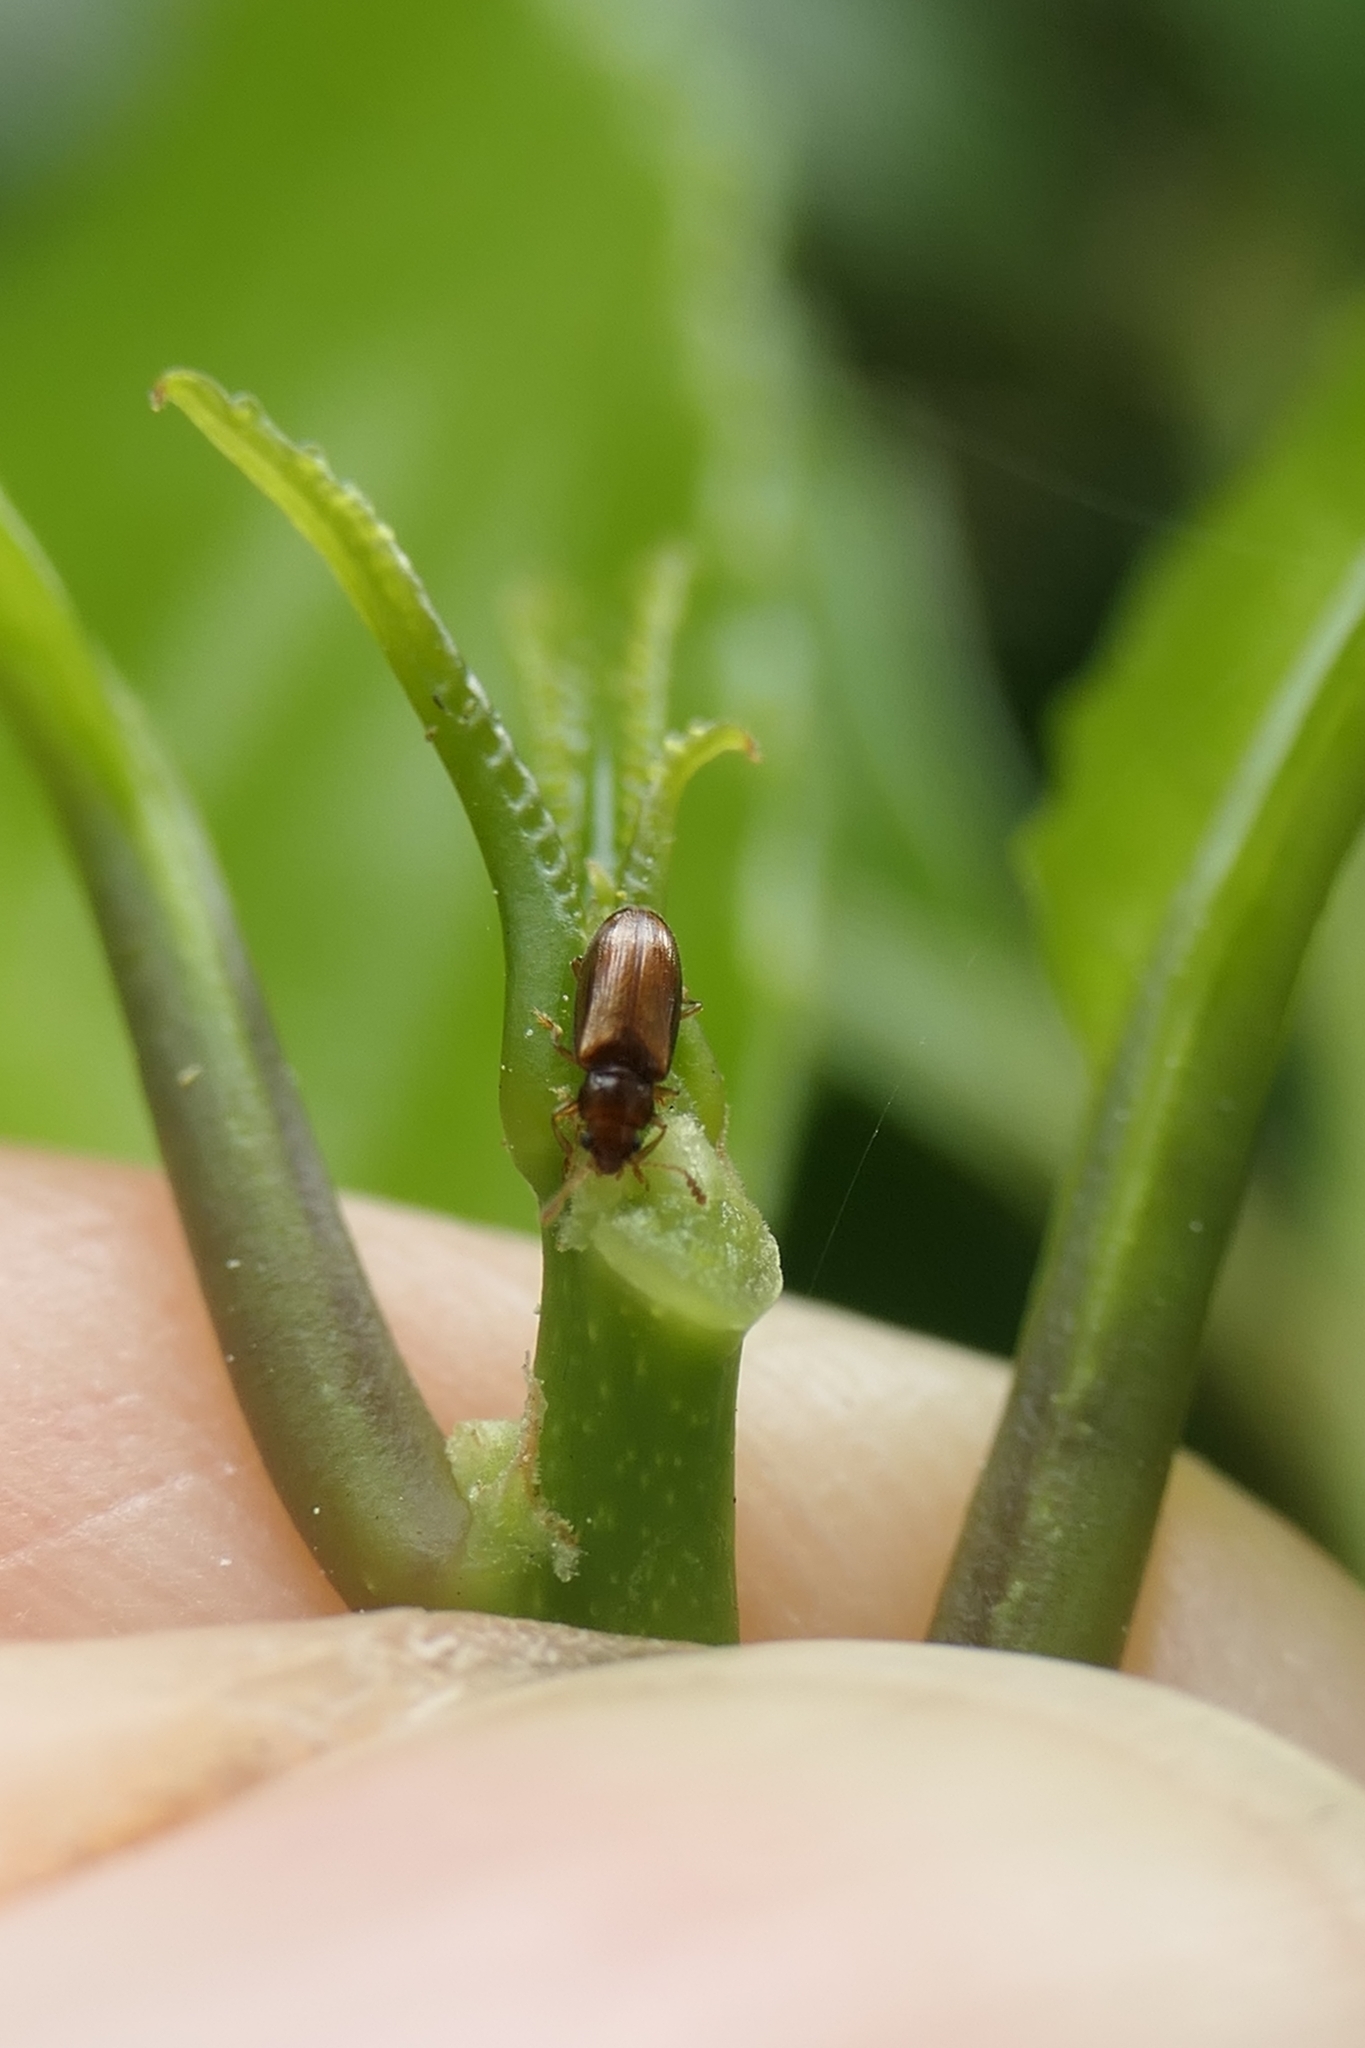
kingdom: Animalia
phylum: Arthropoda
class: Insecta
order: Coleoptera
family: Erotylidae
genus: Loberus
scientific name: Loberus depressus
